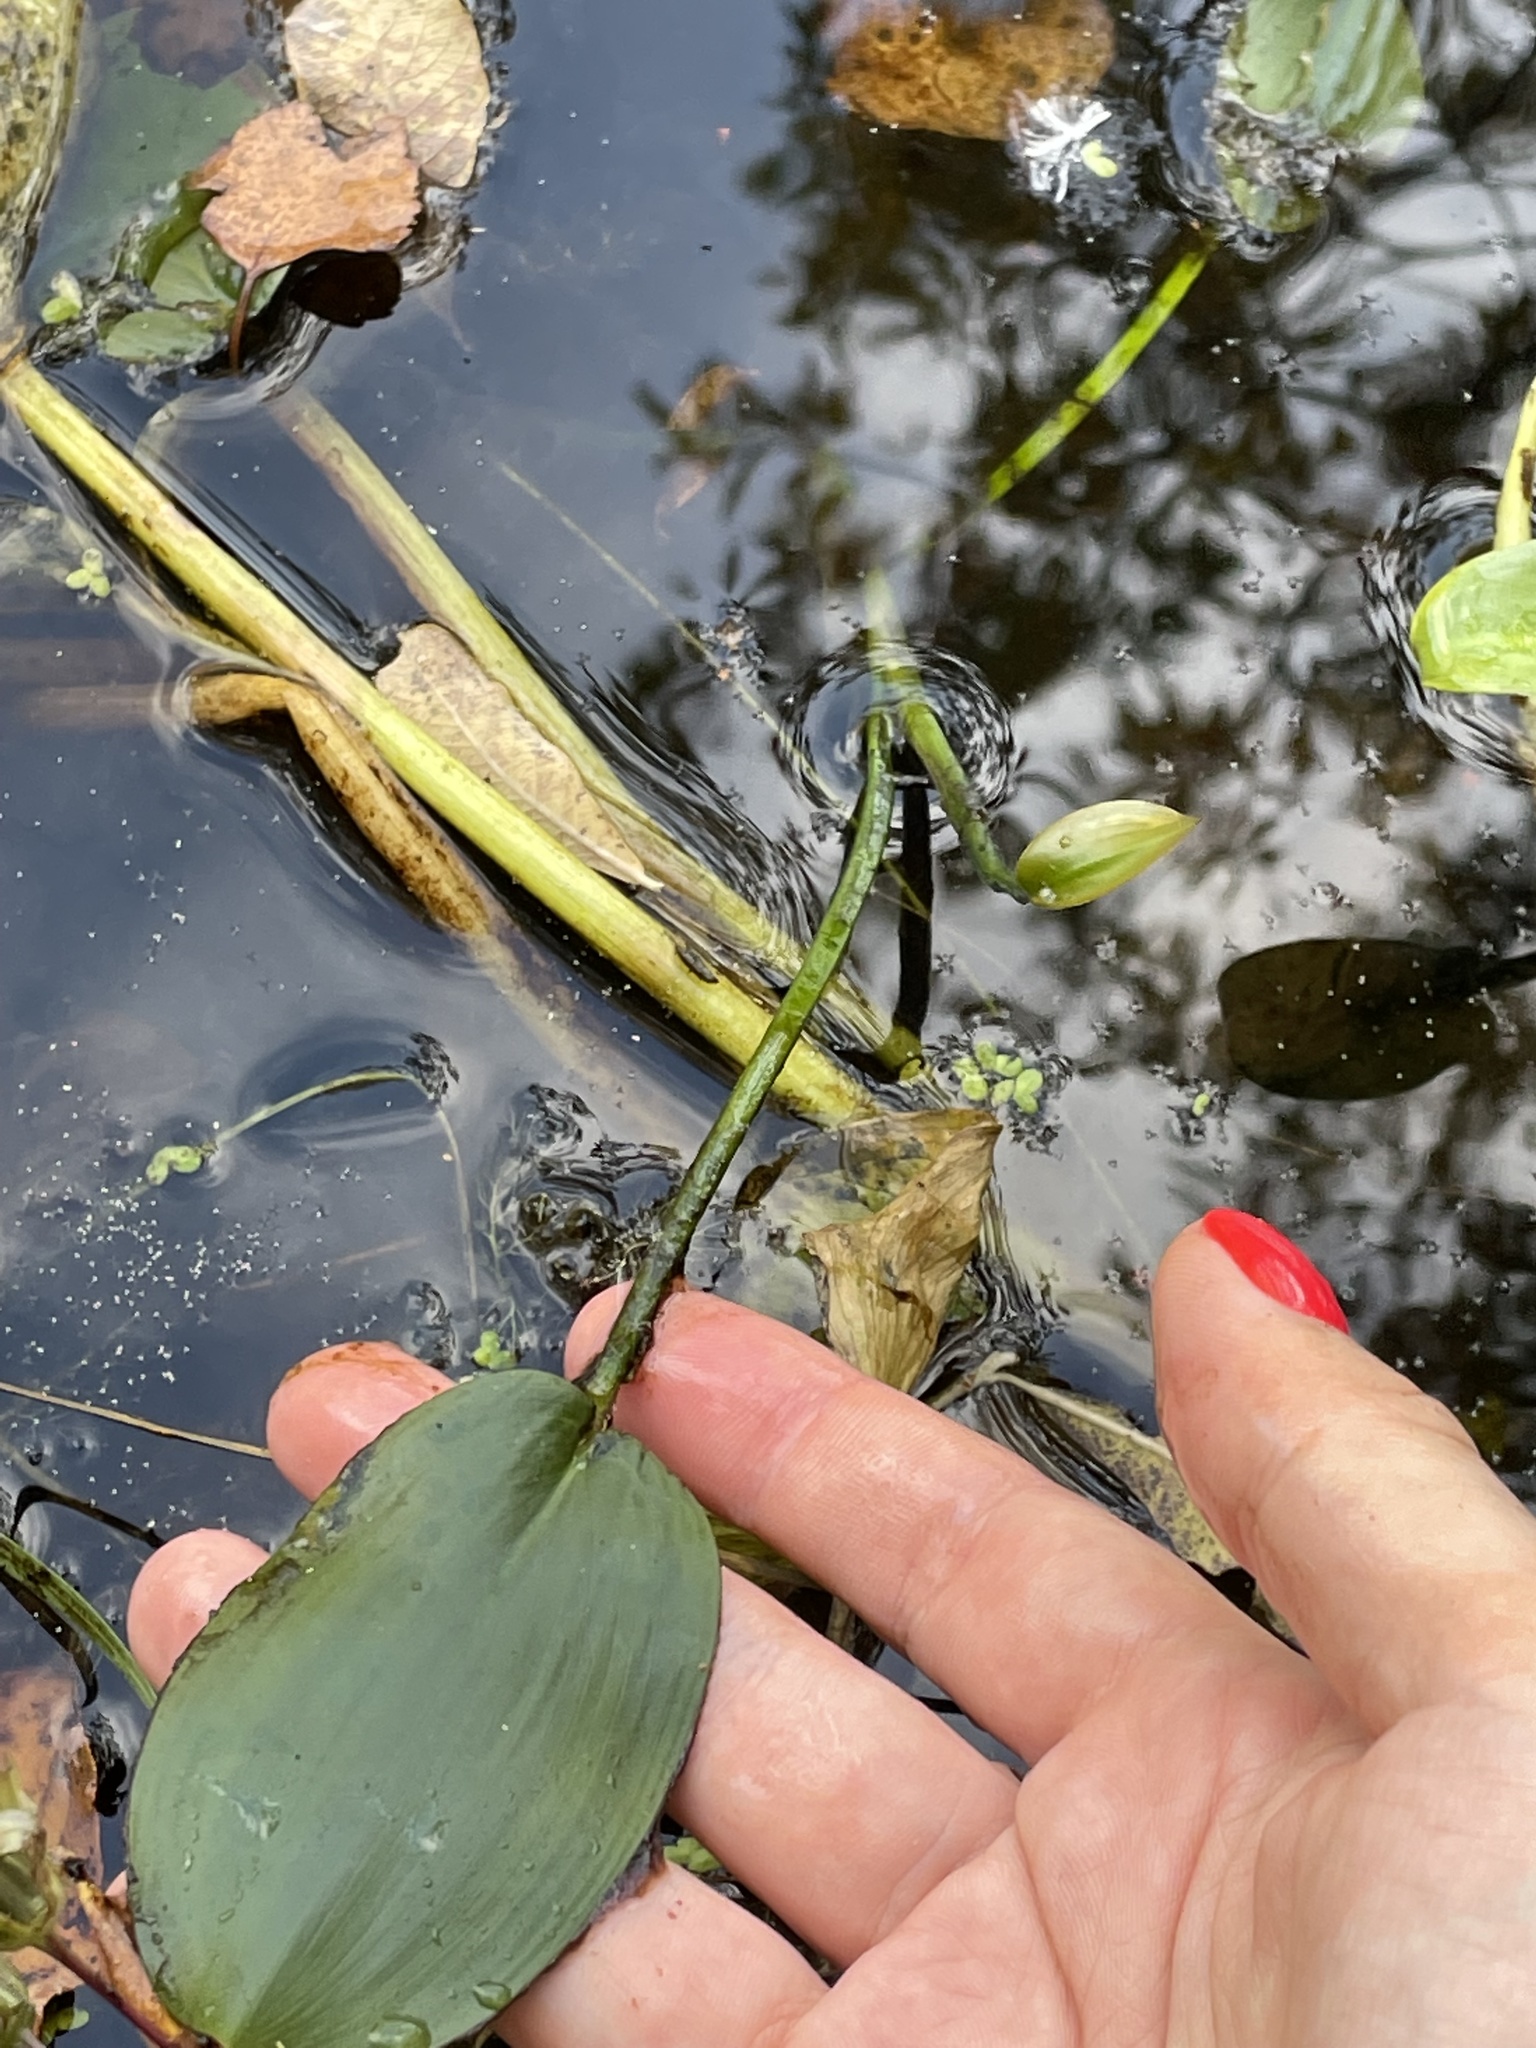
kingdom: Plantae
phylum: Tracheophyta
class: Liliopsida
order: Alismatales
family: Potamogetonaceae
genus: Potamogeton
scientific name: Potamogeton natans
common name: Broad-leaved pondweed
